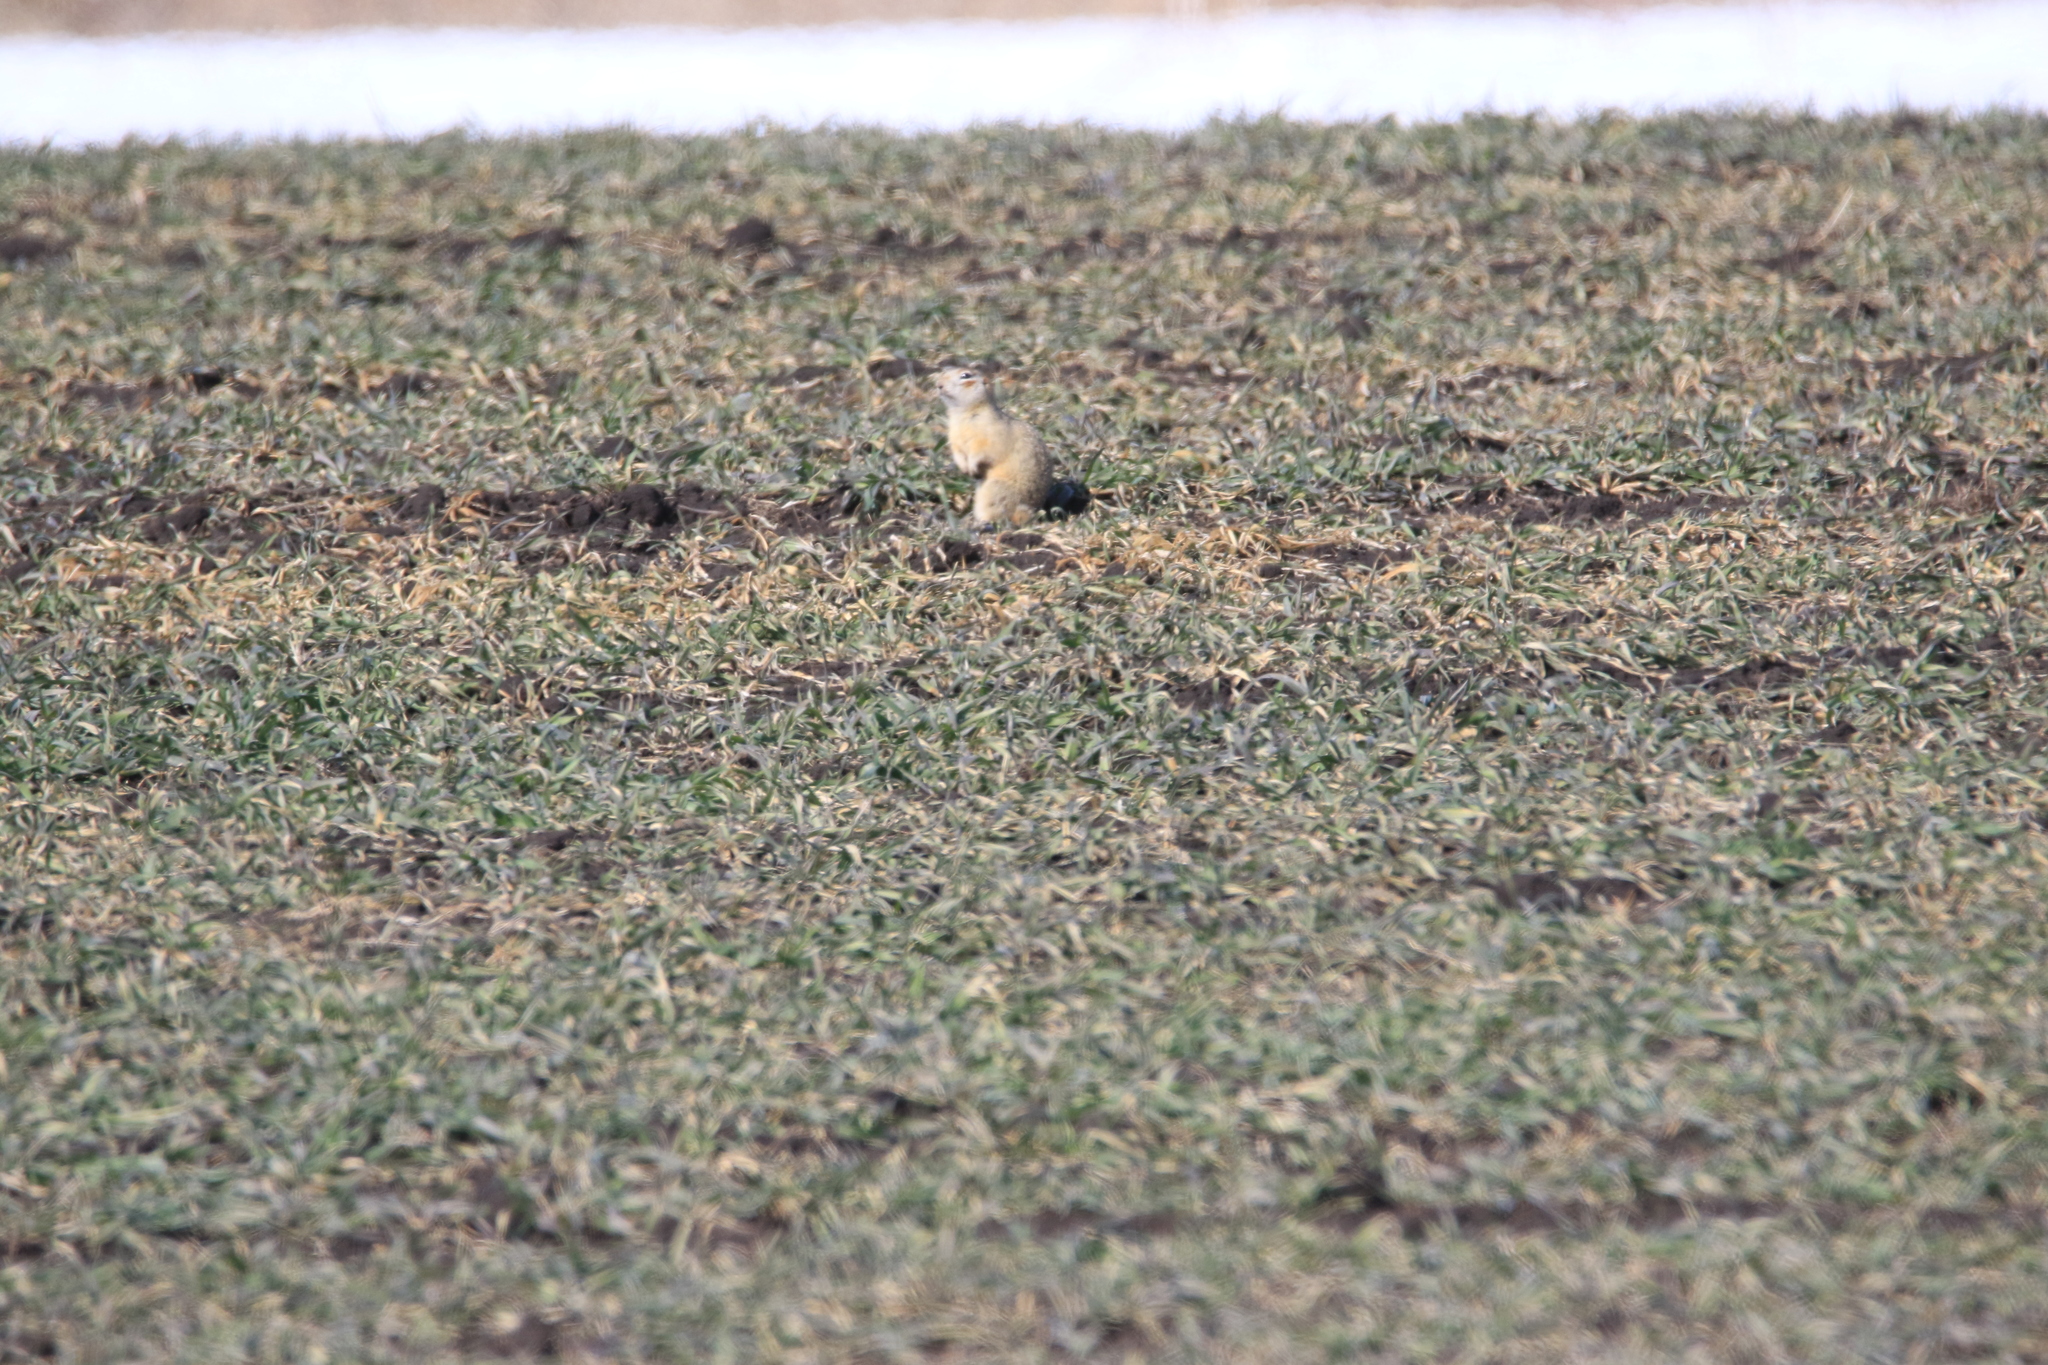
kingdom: Animalia
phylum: Chordata
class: Mammalia
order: Rodentia
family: Sciuridae
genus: Spermophilus
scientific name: Spermophilus erythrogenys
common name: Red-cheeked ground squirrel
